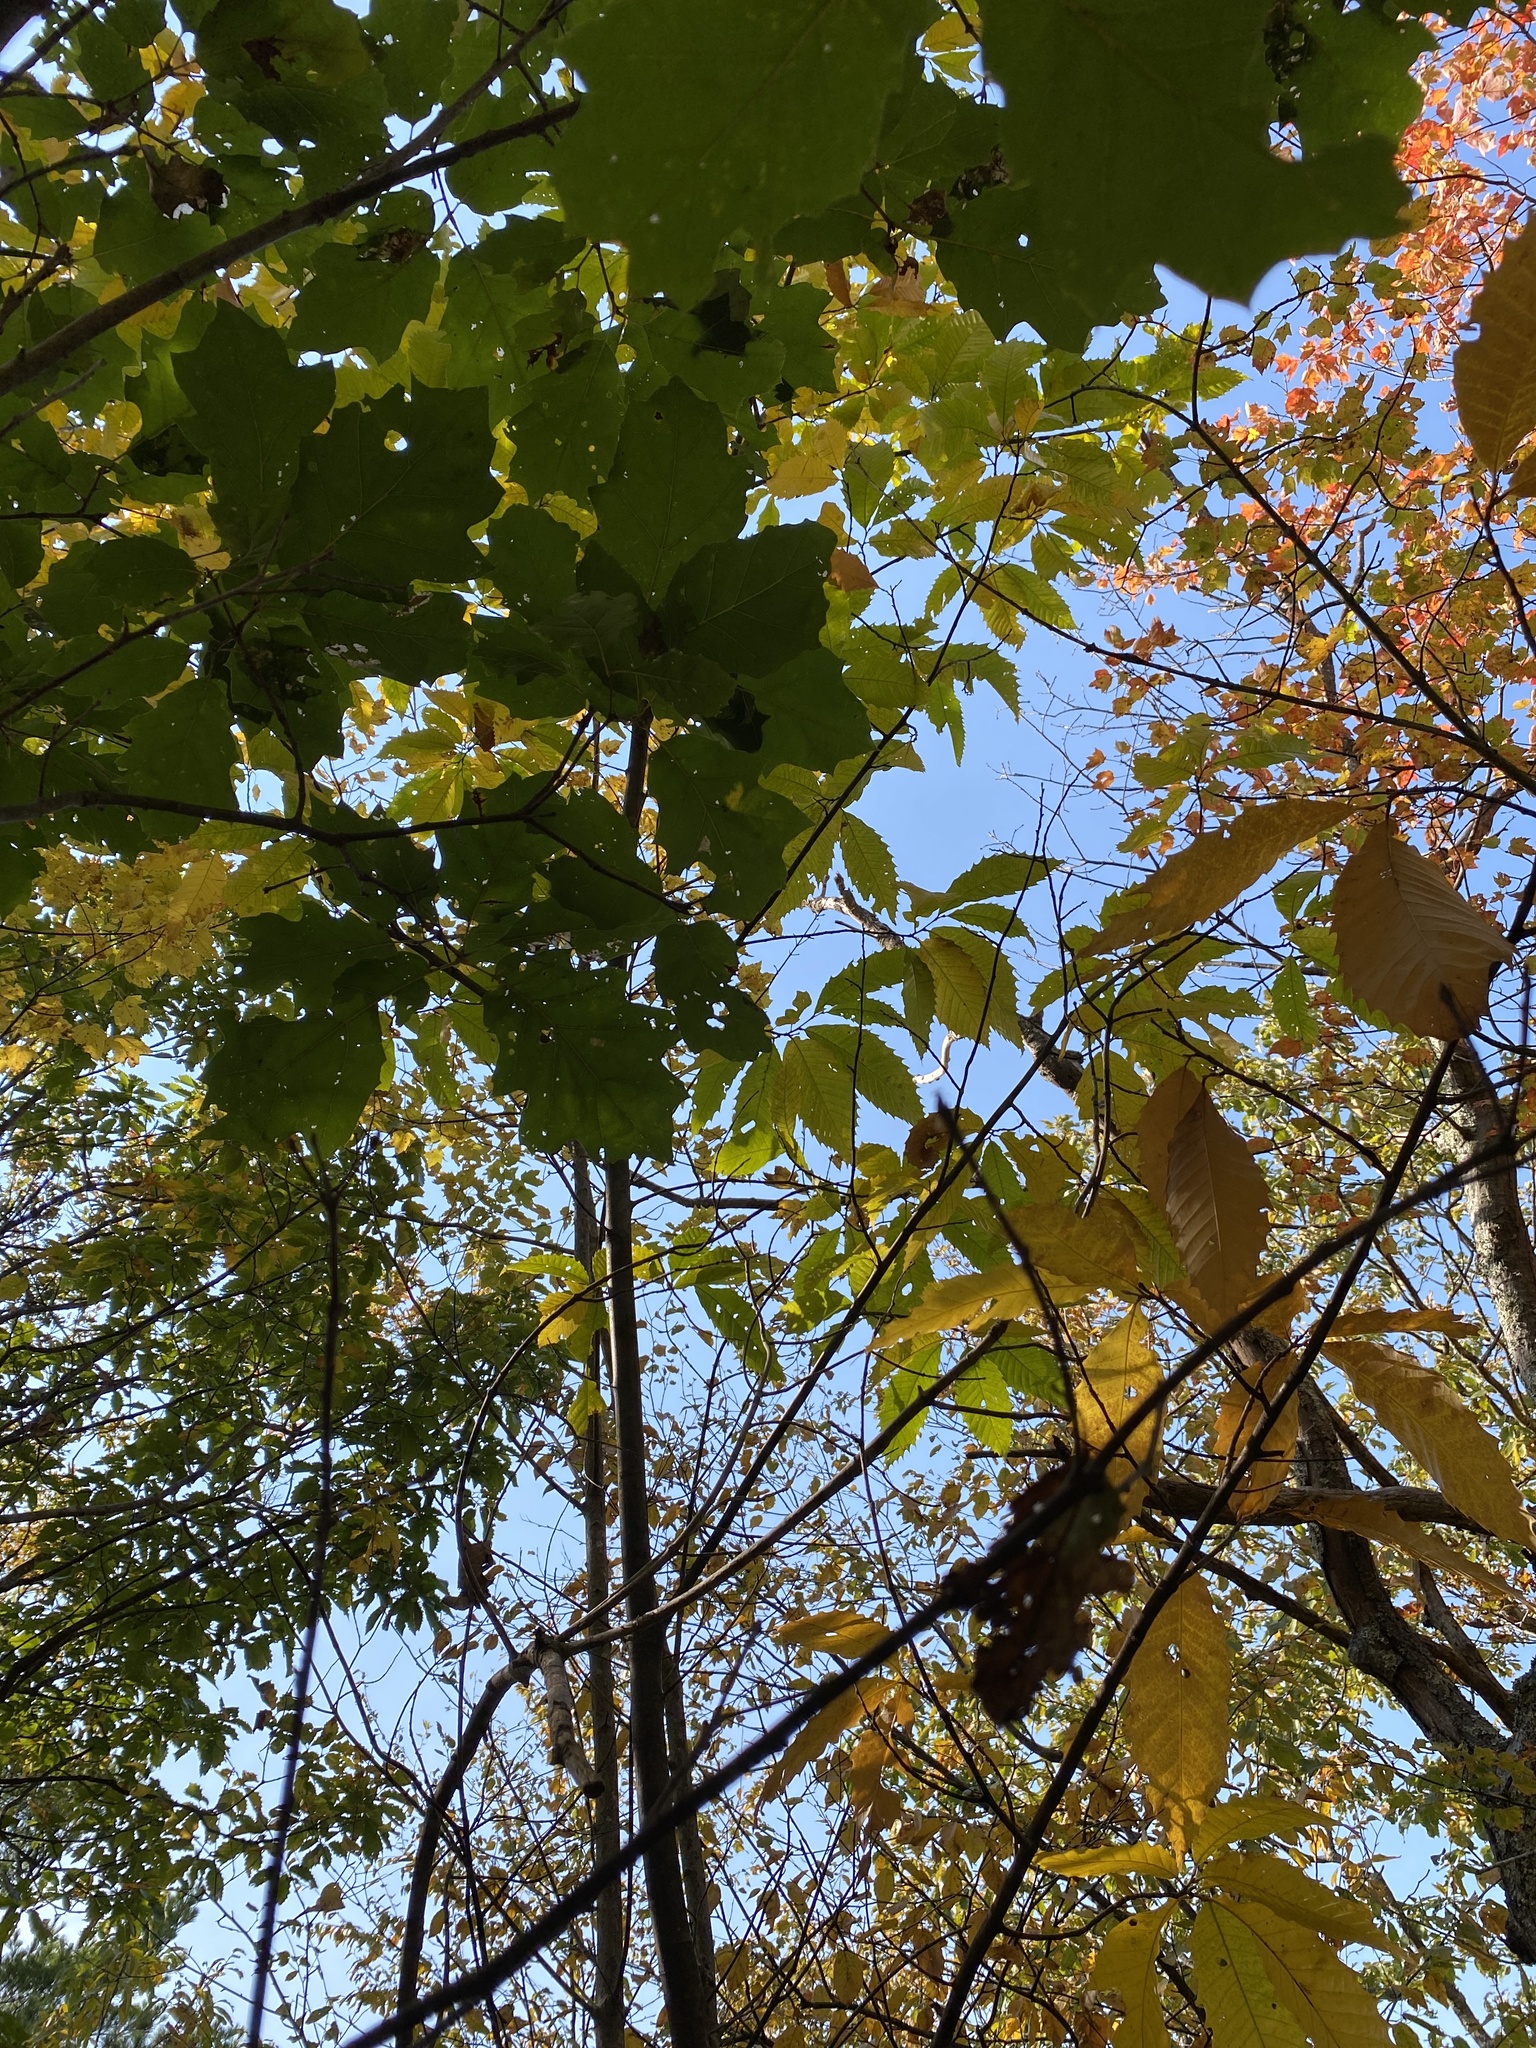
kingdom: Plantae
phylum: Tracheophyta
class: Magnoliopsida
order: Fagales
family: Fagaceae
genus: Castanea
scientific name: Castanea dentata
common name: American chestnut
